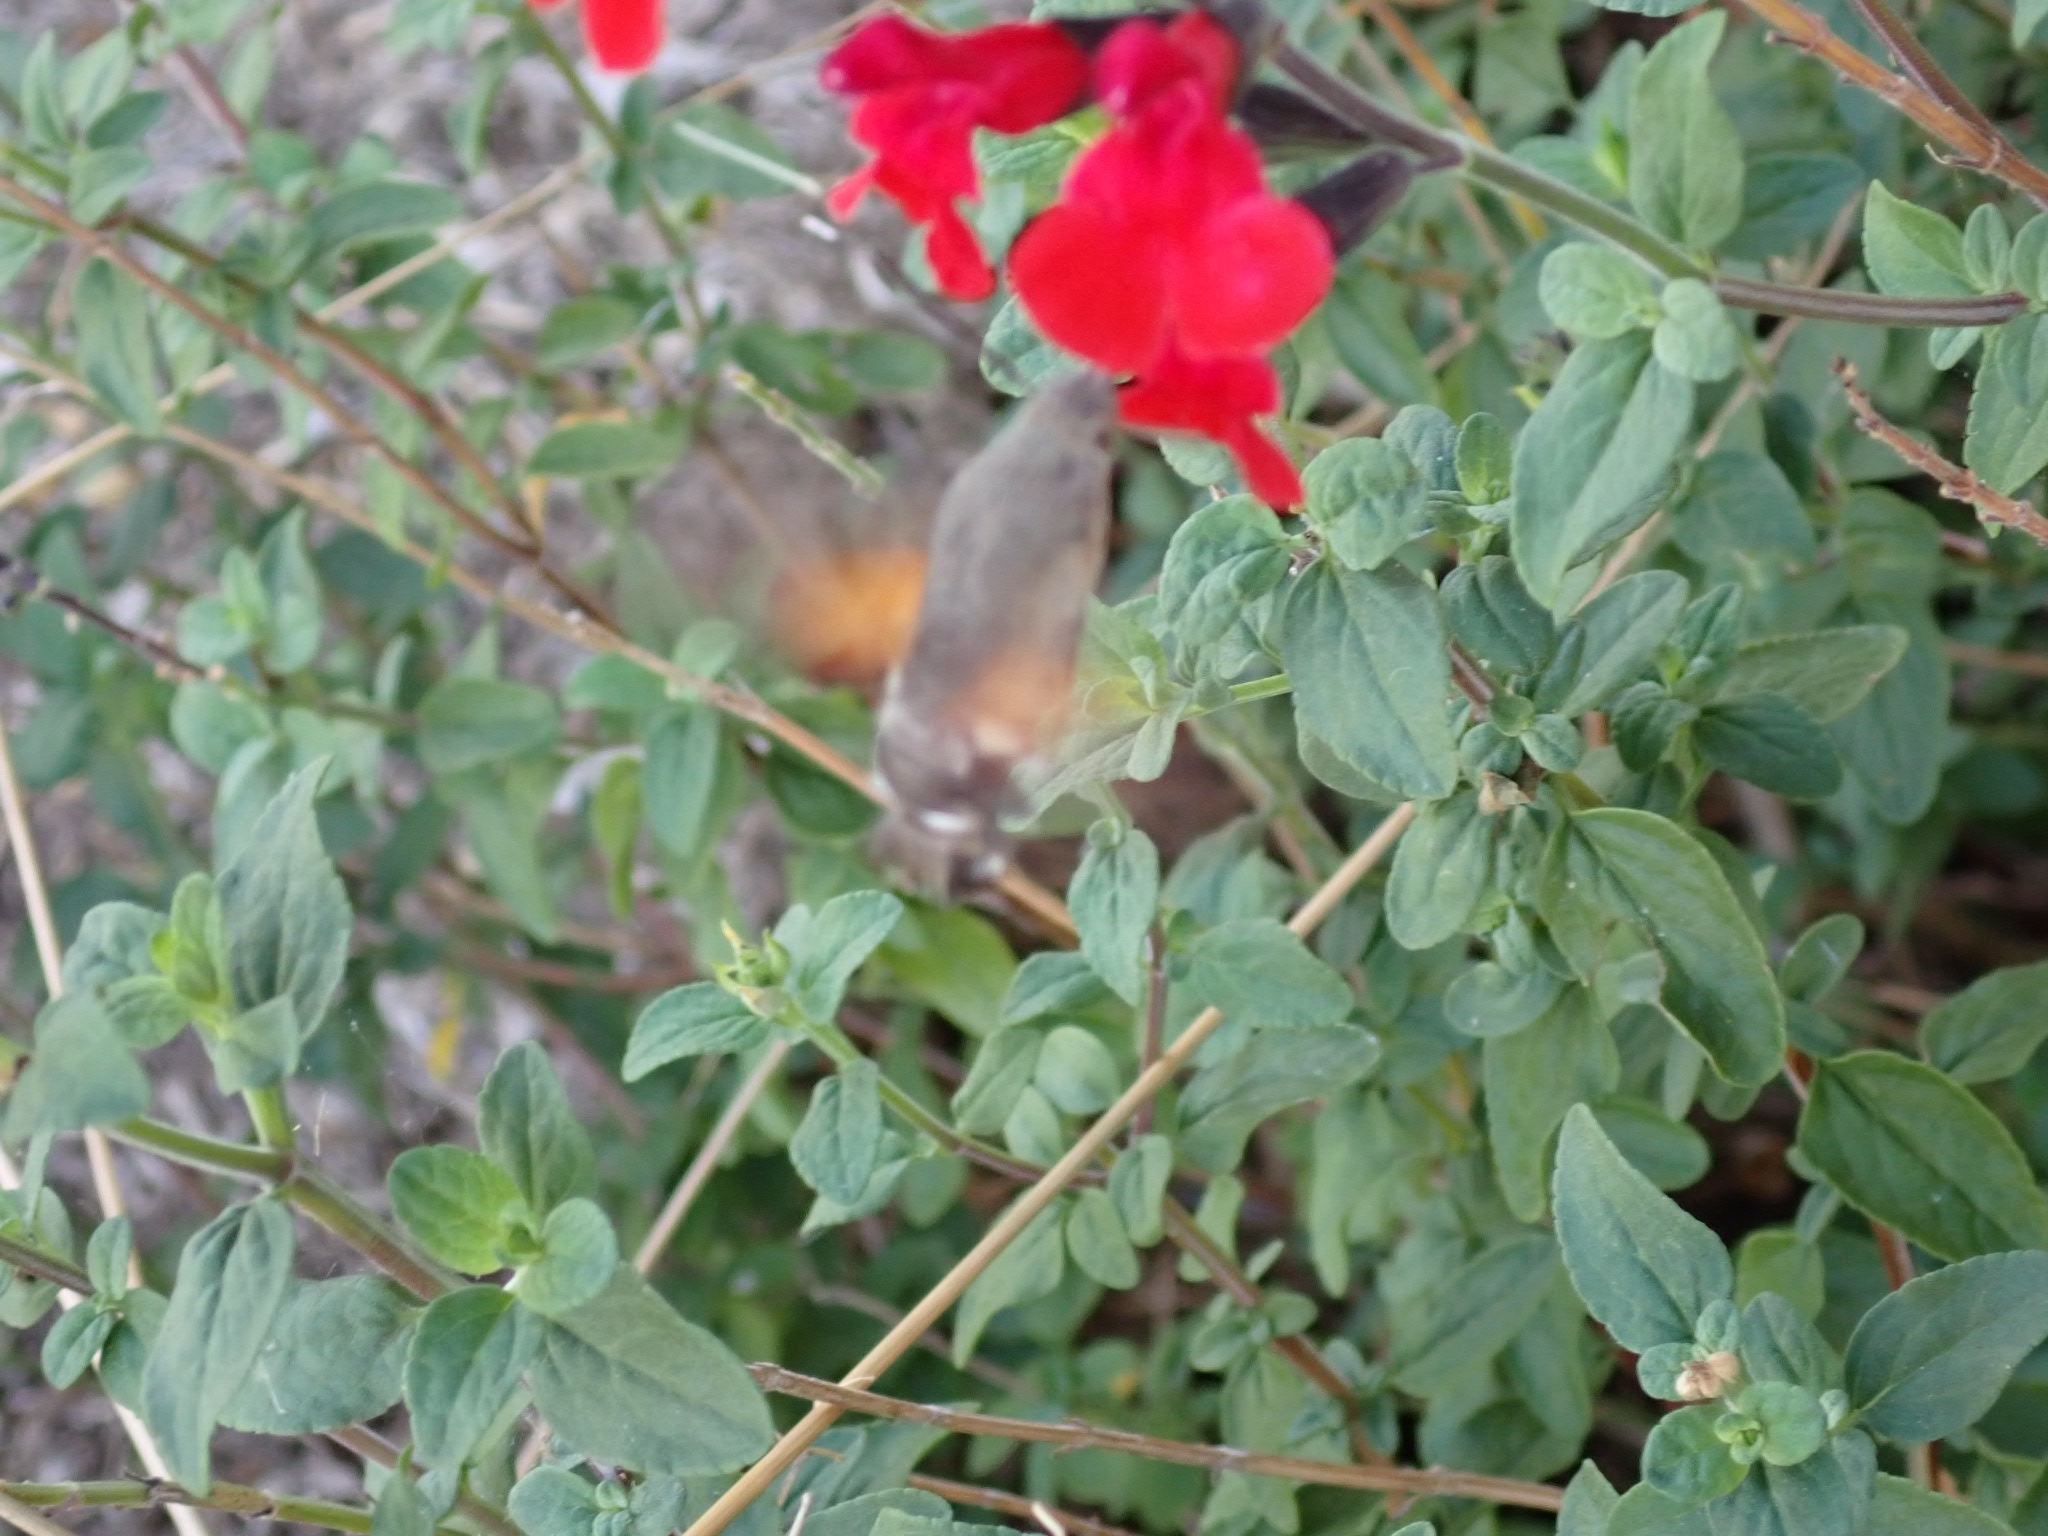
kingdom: Animalia
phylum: Arthropoda
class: Insecta
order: Lepidoptera
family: Sphingidae
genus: Macroglossum
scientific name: Macroglossum stellatarum
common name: Humming-bird hawk-moth
